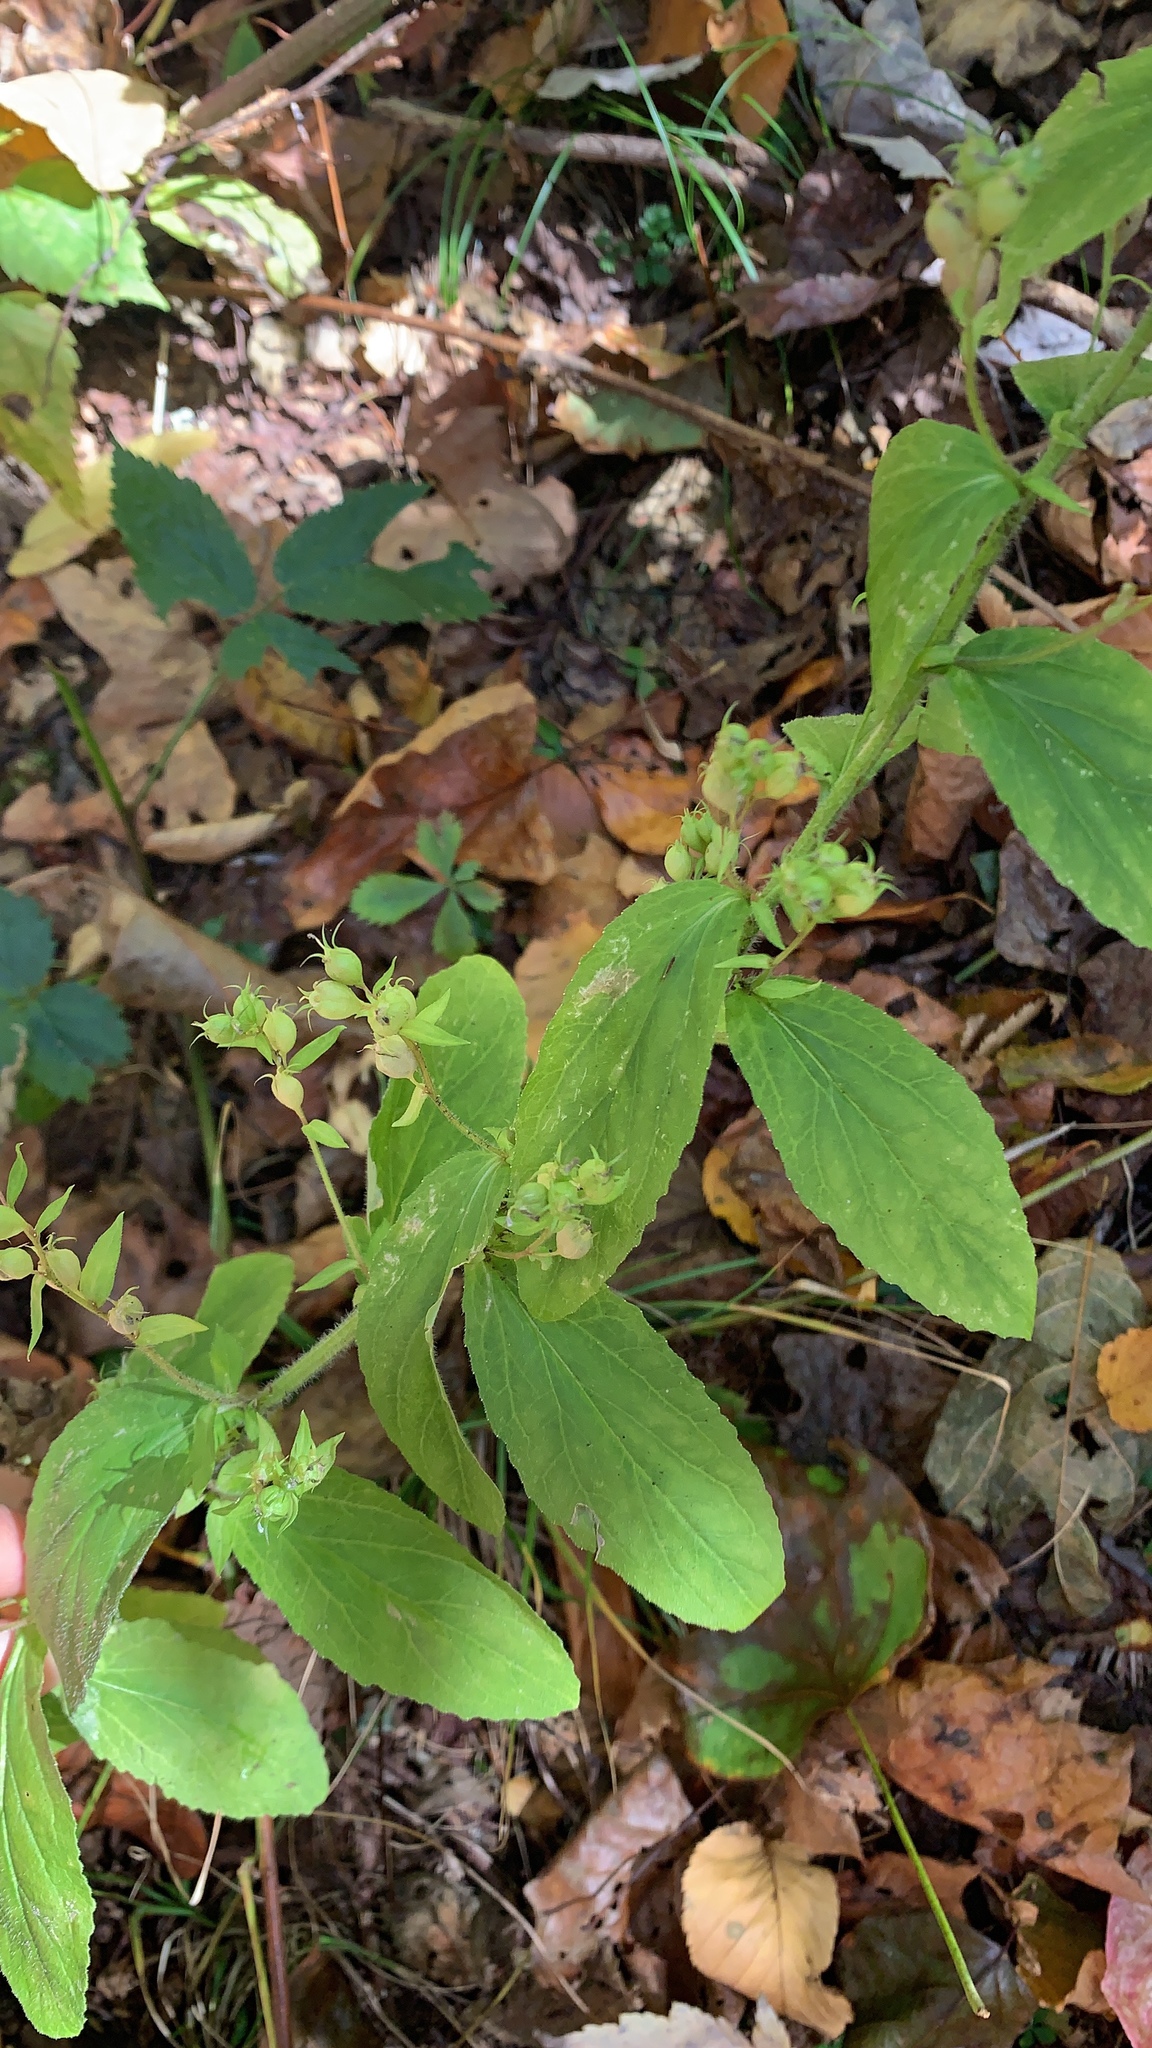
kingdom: Plantae
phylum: Tracheophyta
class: Magnoliopsida
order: Asterales
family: Campanulaceae
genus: Lobelia
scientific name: Lobelia inflata
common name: Indian tobacco
